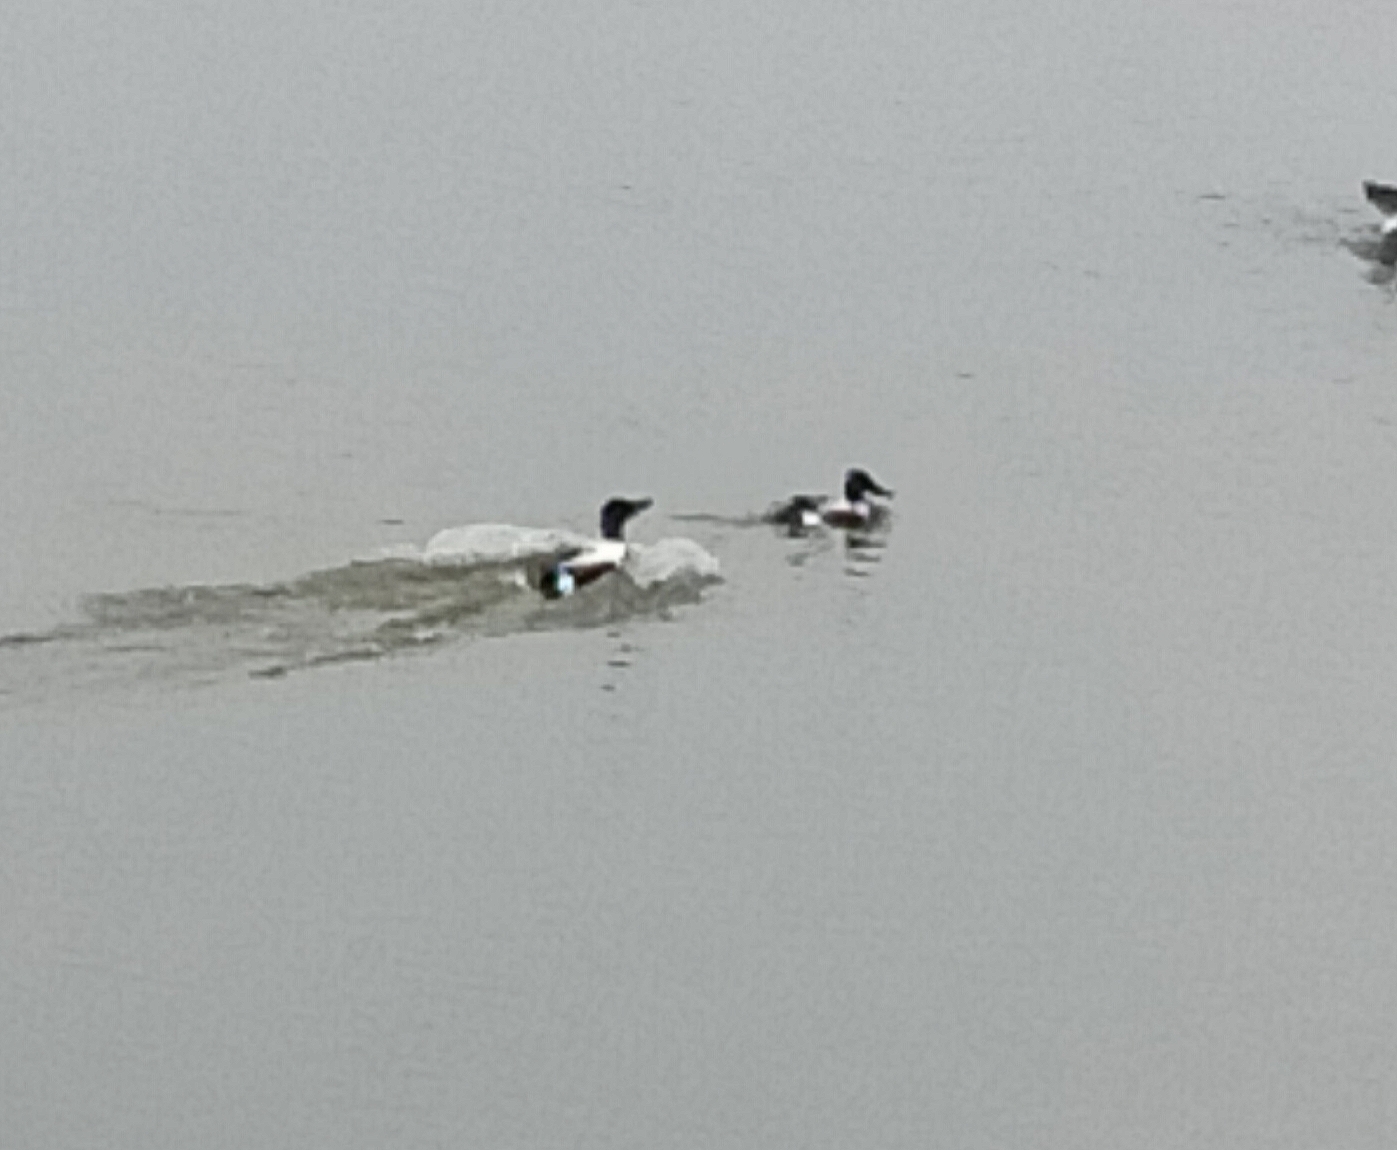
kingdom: Animalia
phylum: Chordata
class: Aves
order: Anseriformes
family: Anatidae
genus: Spatula
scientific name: Spatula clypeata
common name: Northern shoveler
